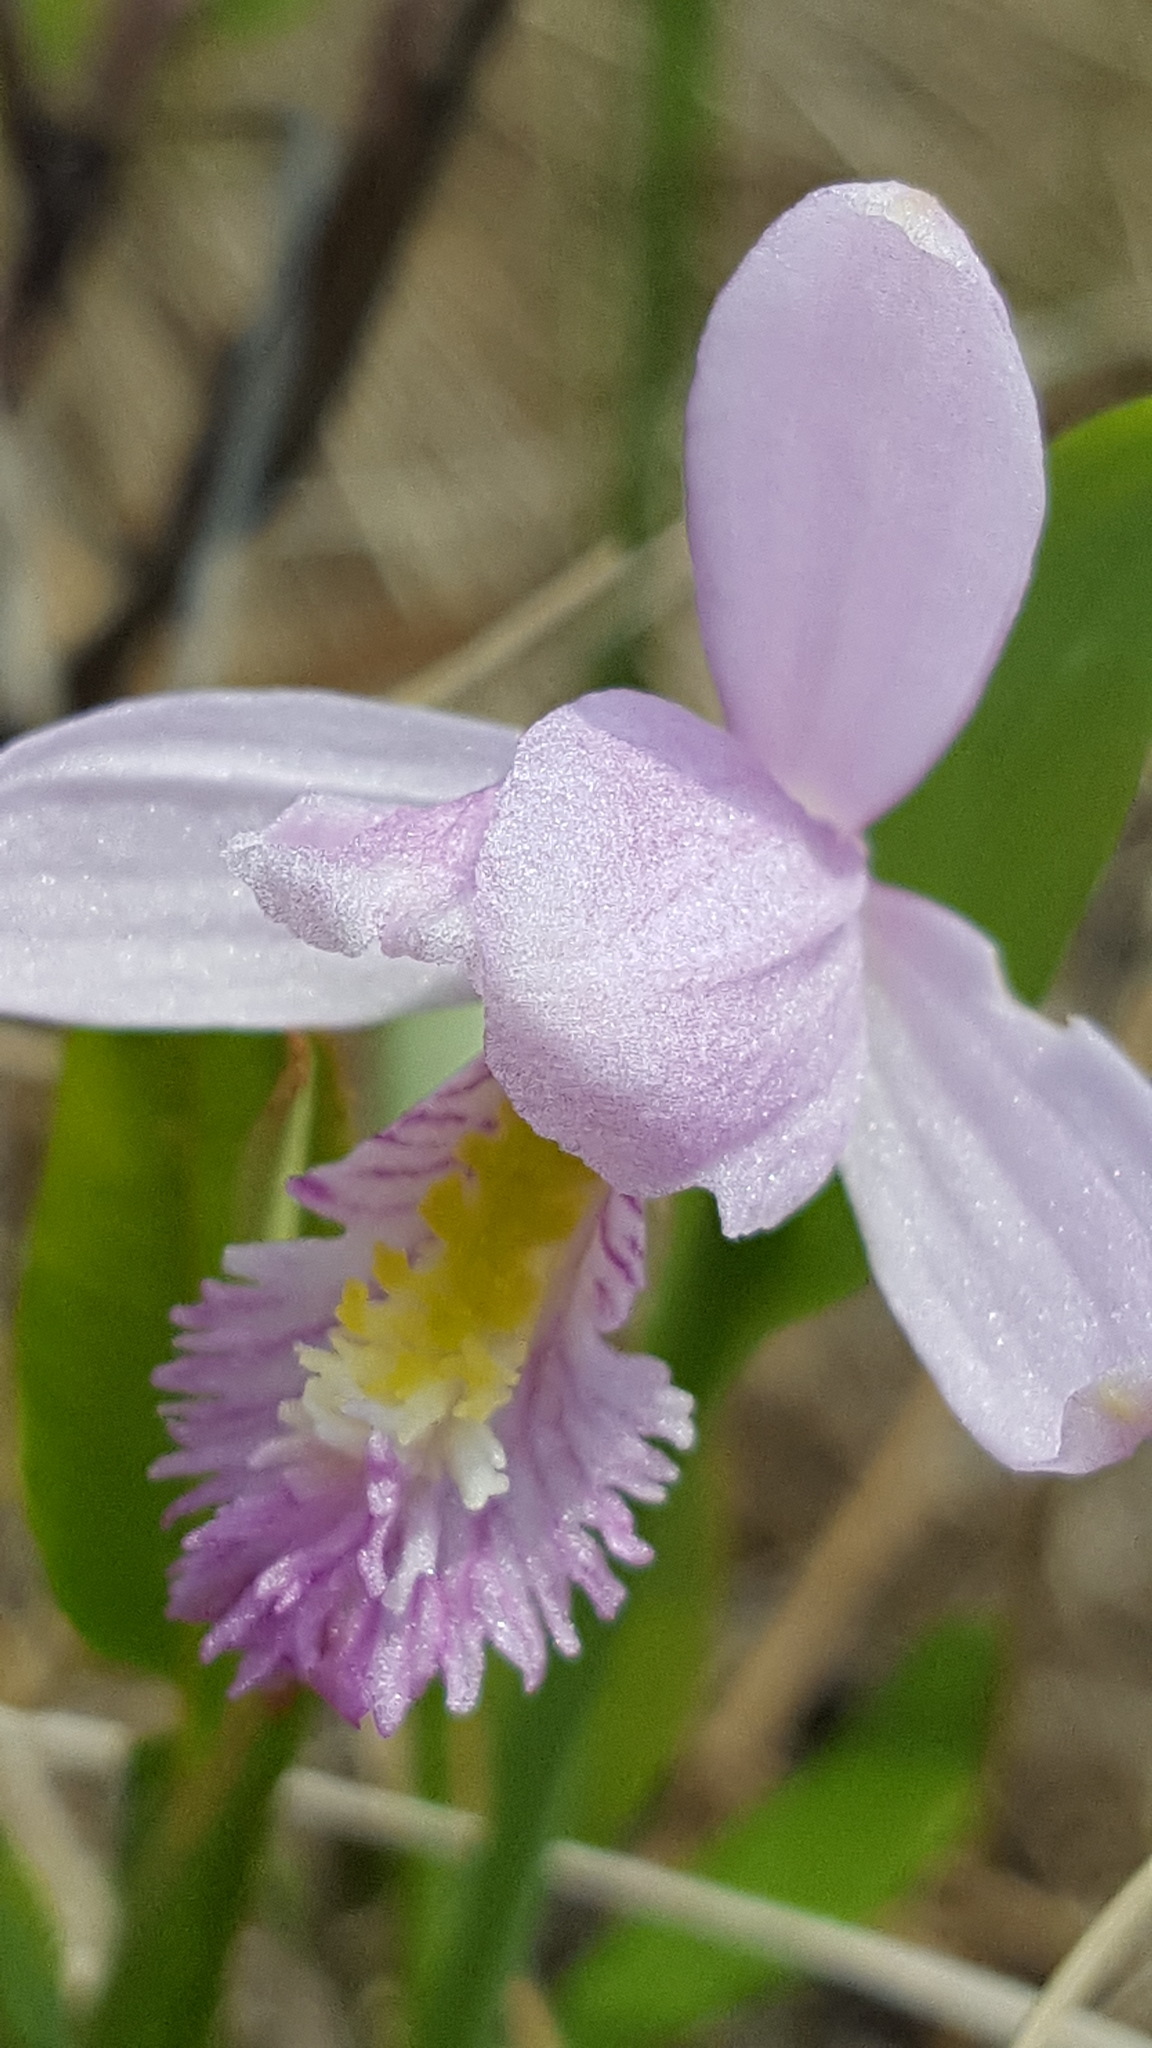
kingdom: Plantae
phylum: Tracheophyta
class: Liliopsida
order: Asparagales
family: Orchidaceae
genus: Pogonia
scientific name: Pogonia ophioglossoides
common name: Rose pogonia
